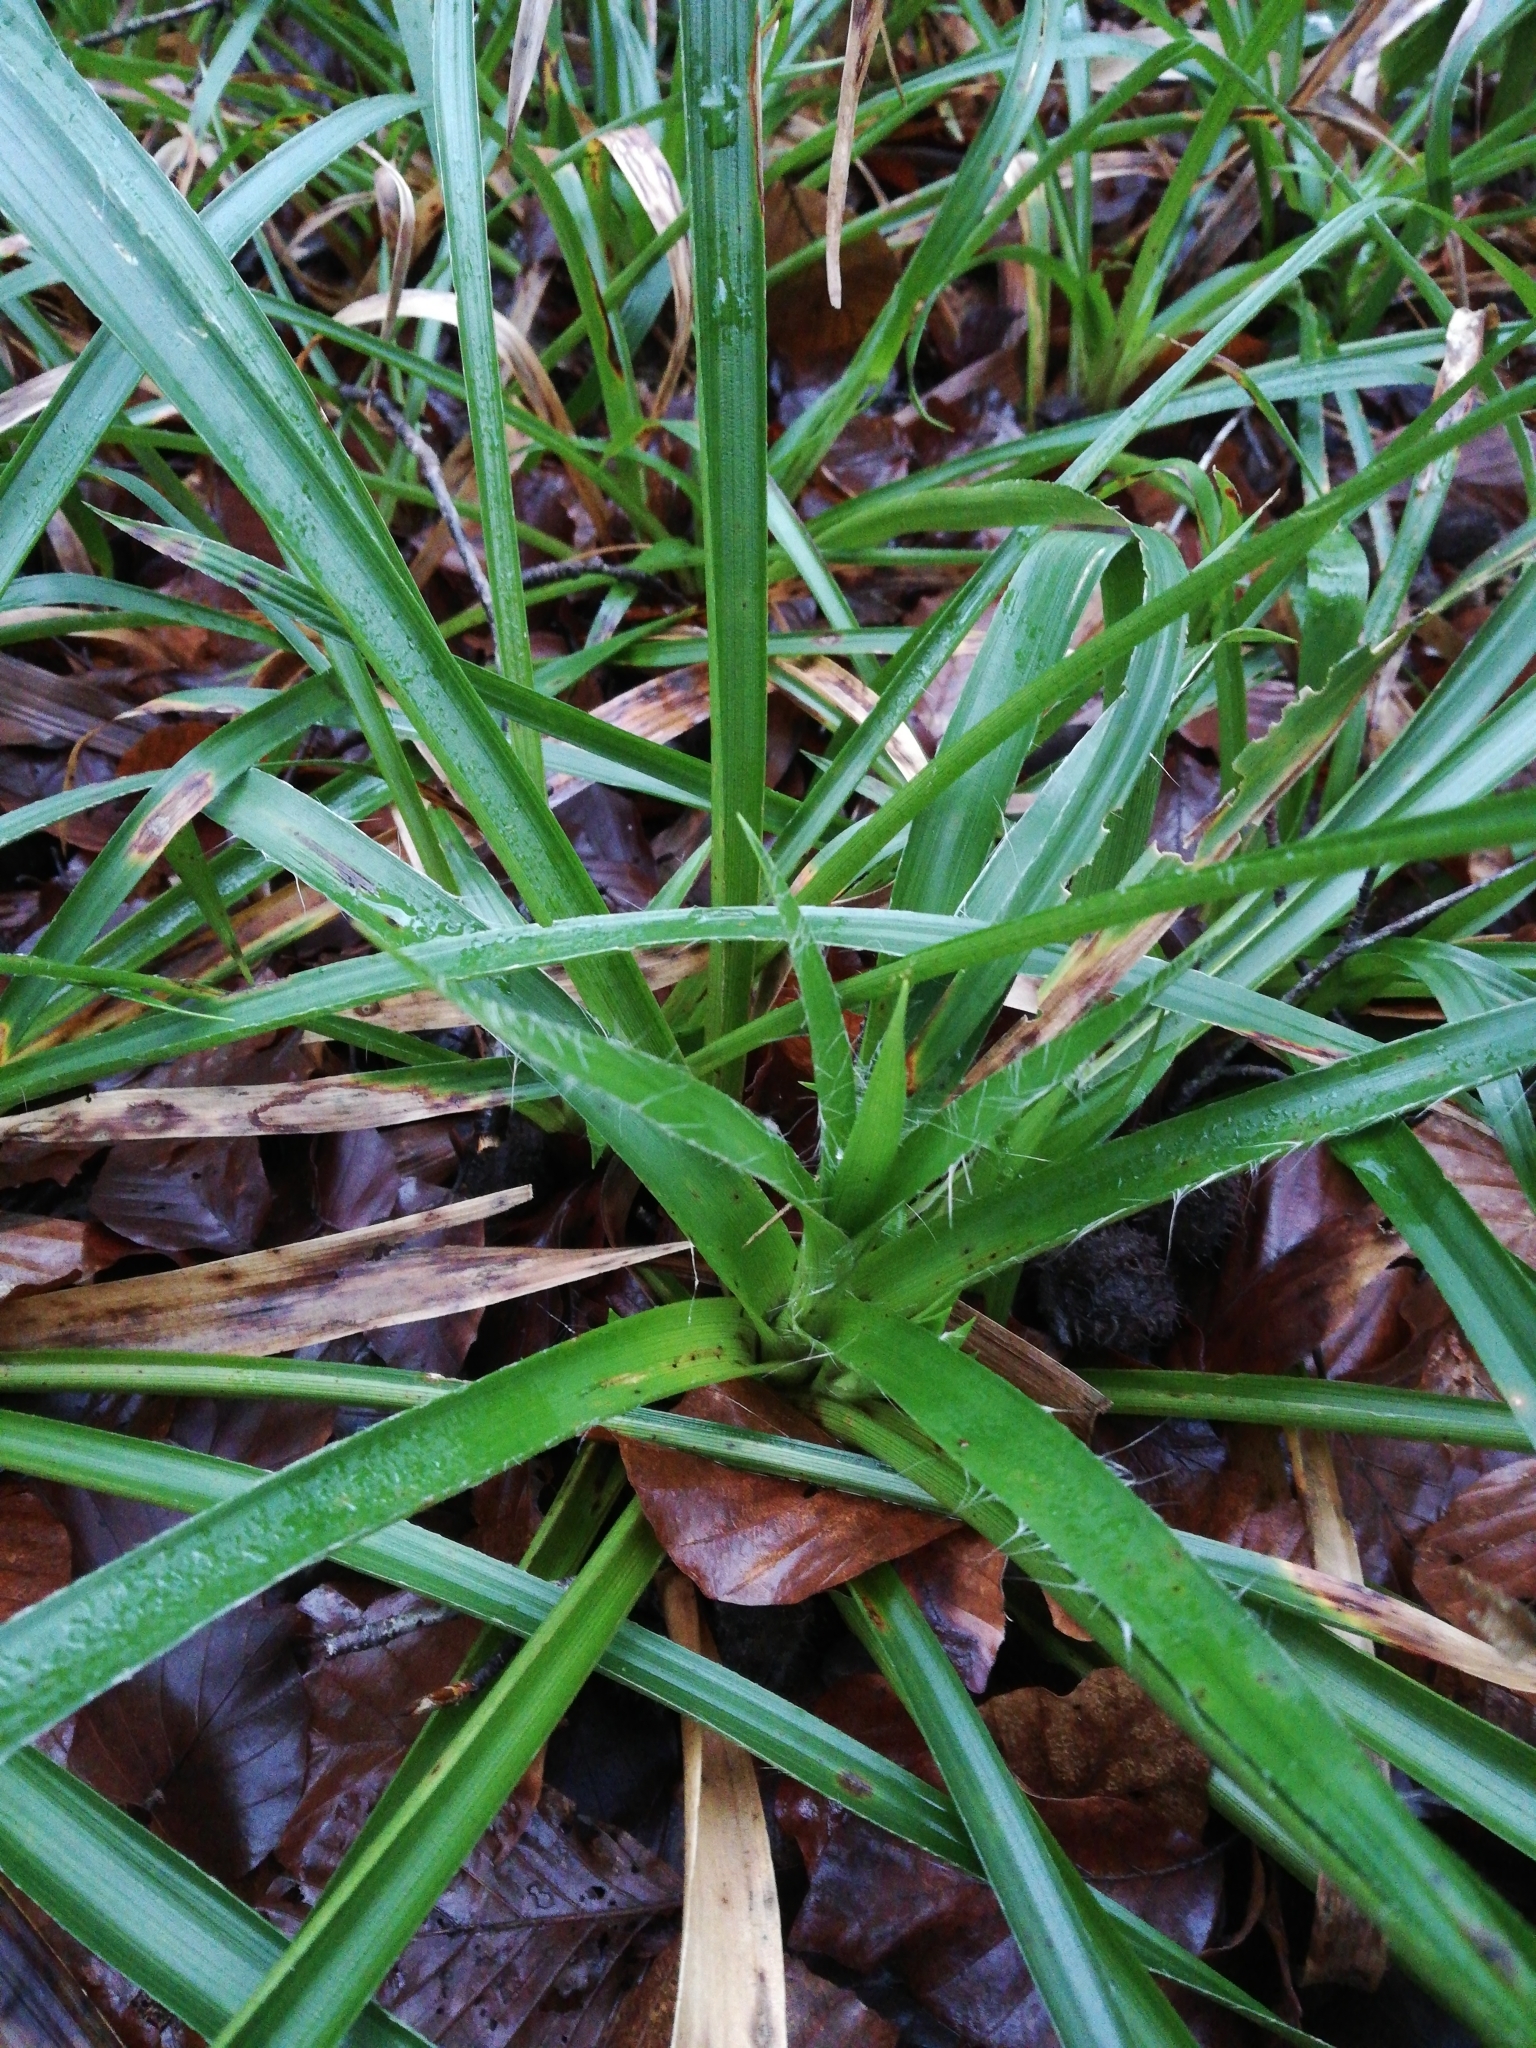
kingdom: Plantae
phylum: Tracheophyta
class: Liliopsida
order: Poales
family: Juncaceae
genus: Luzula
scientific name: Luzula sylvatica
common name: Great wood-rush
